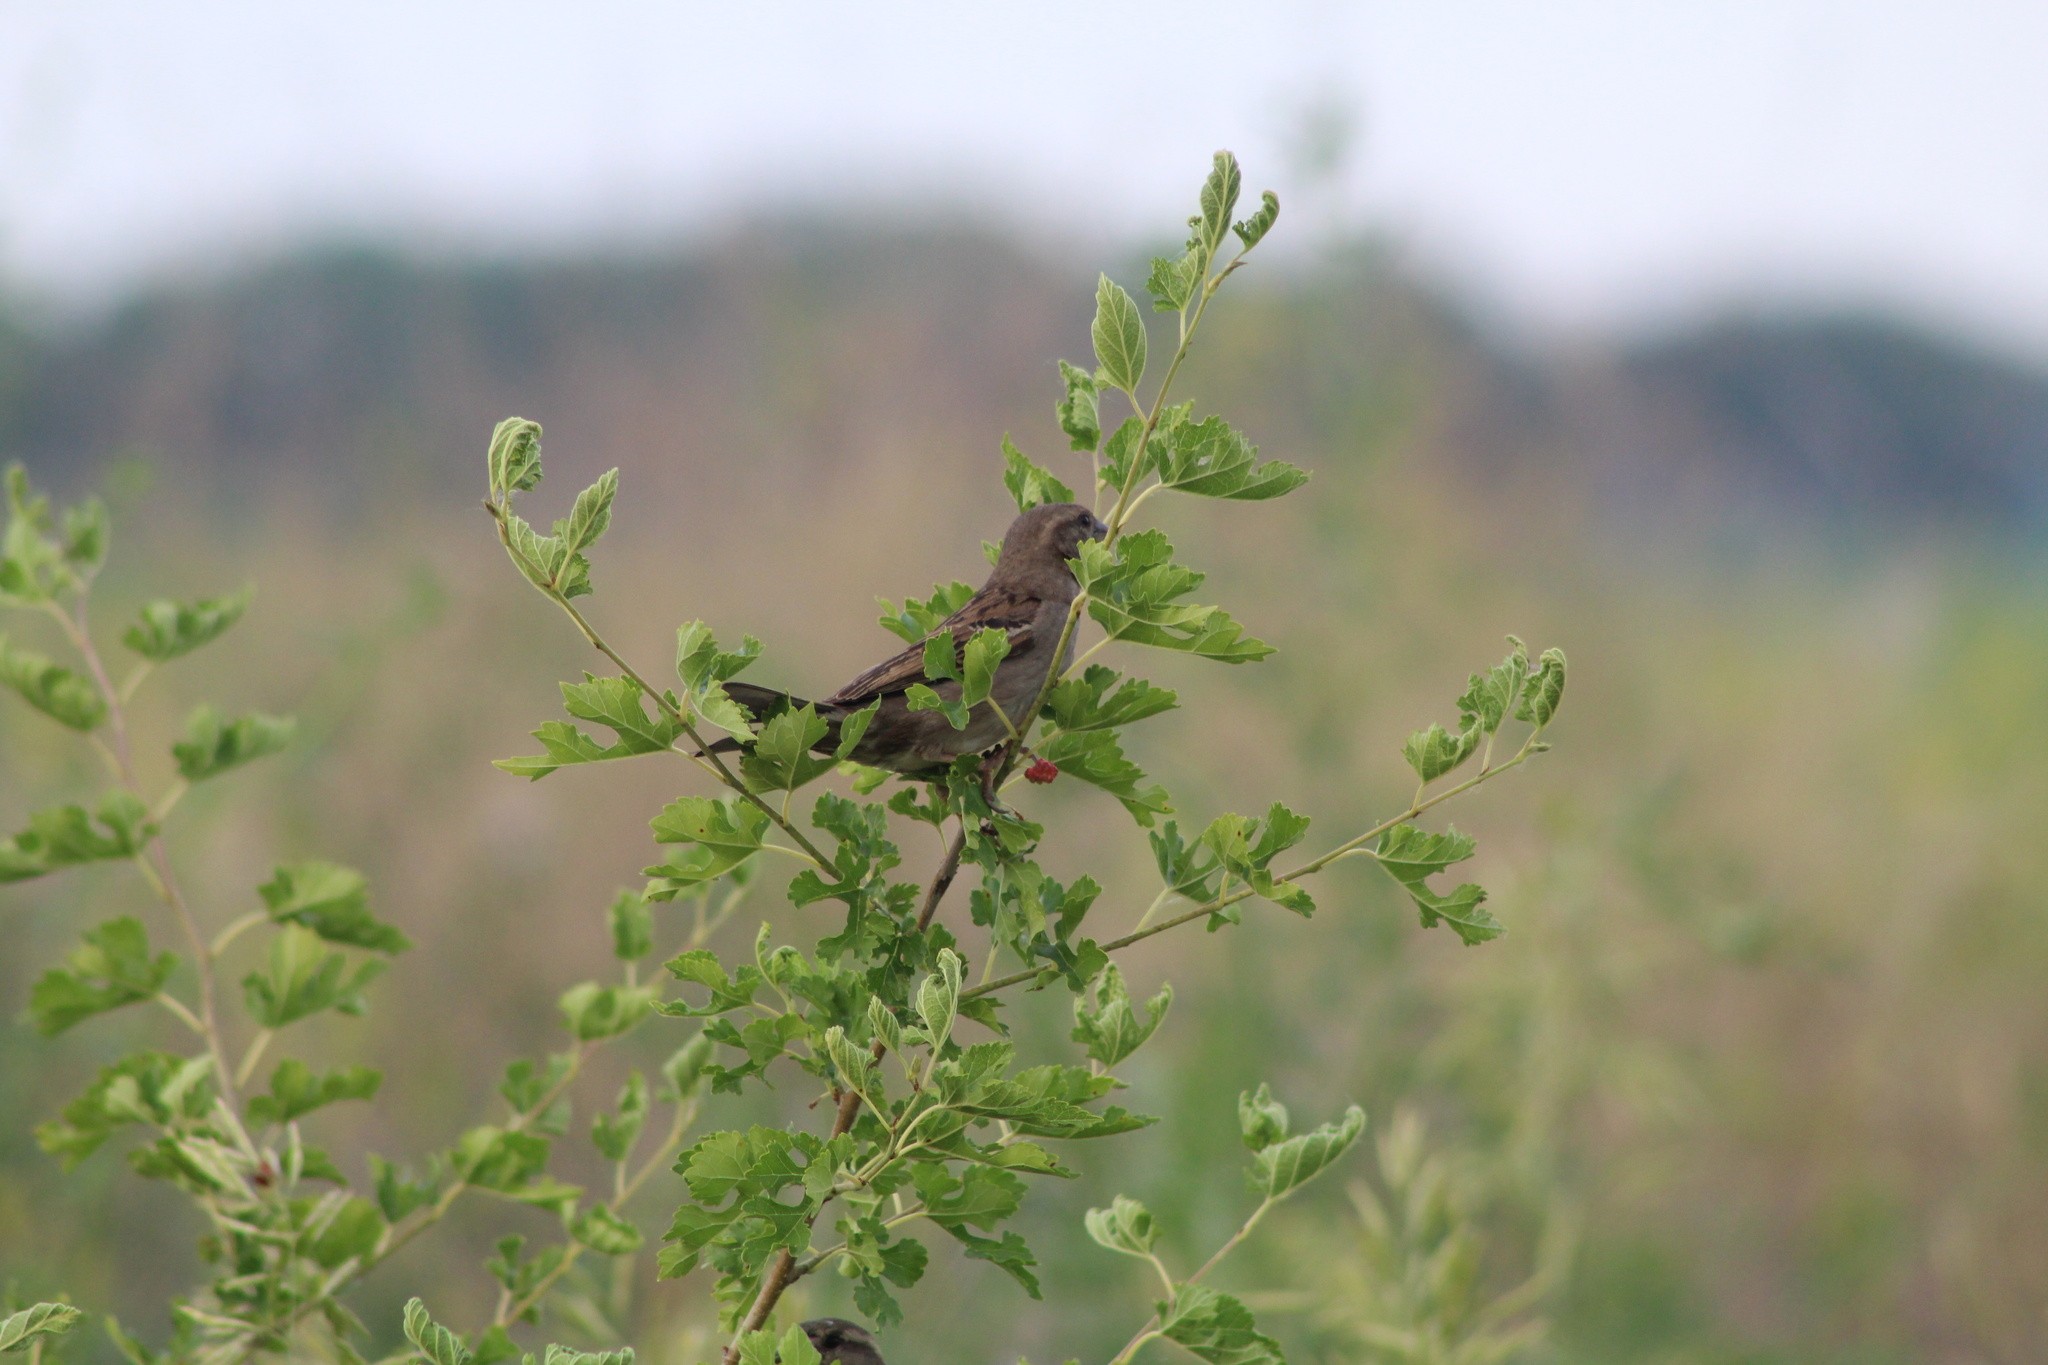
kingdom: Animalia
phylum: Chordata
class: Aves
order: Passeriformes
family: Passeridae
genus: Passer
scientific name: Passer domesticus
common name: House sparrow
